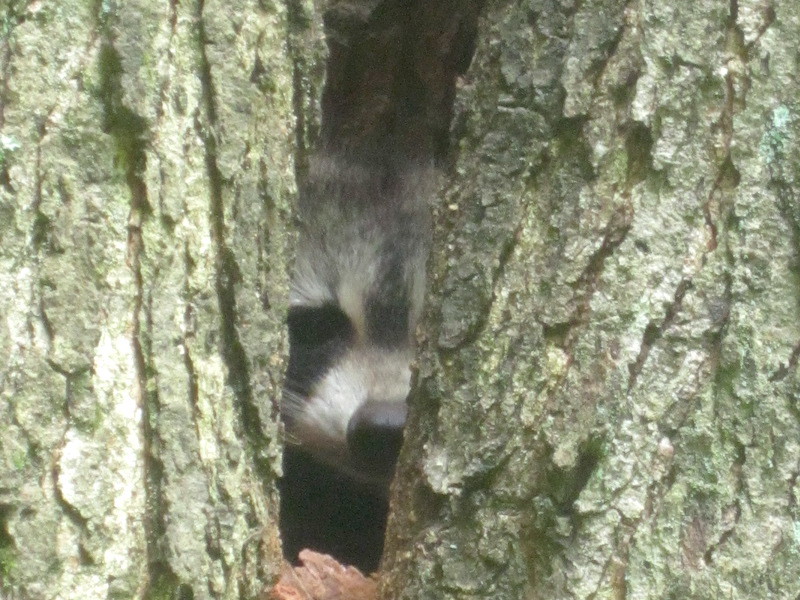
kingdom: Animalia
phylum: Chordata
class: Mammalia
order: Carnivora
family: Procyonidae
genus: Procyon
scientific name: Procyon lotor
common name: Raccoon
